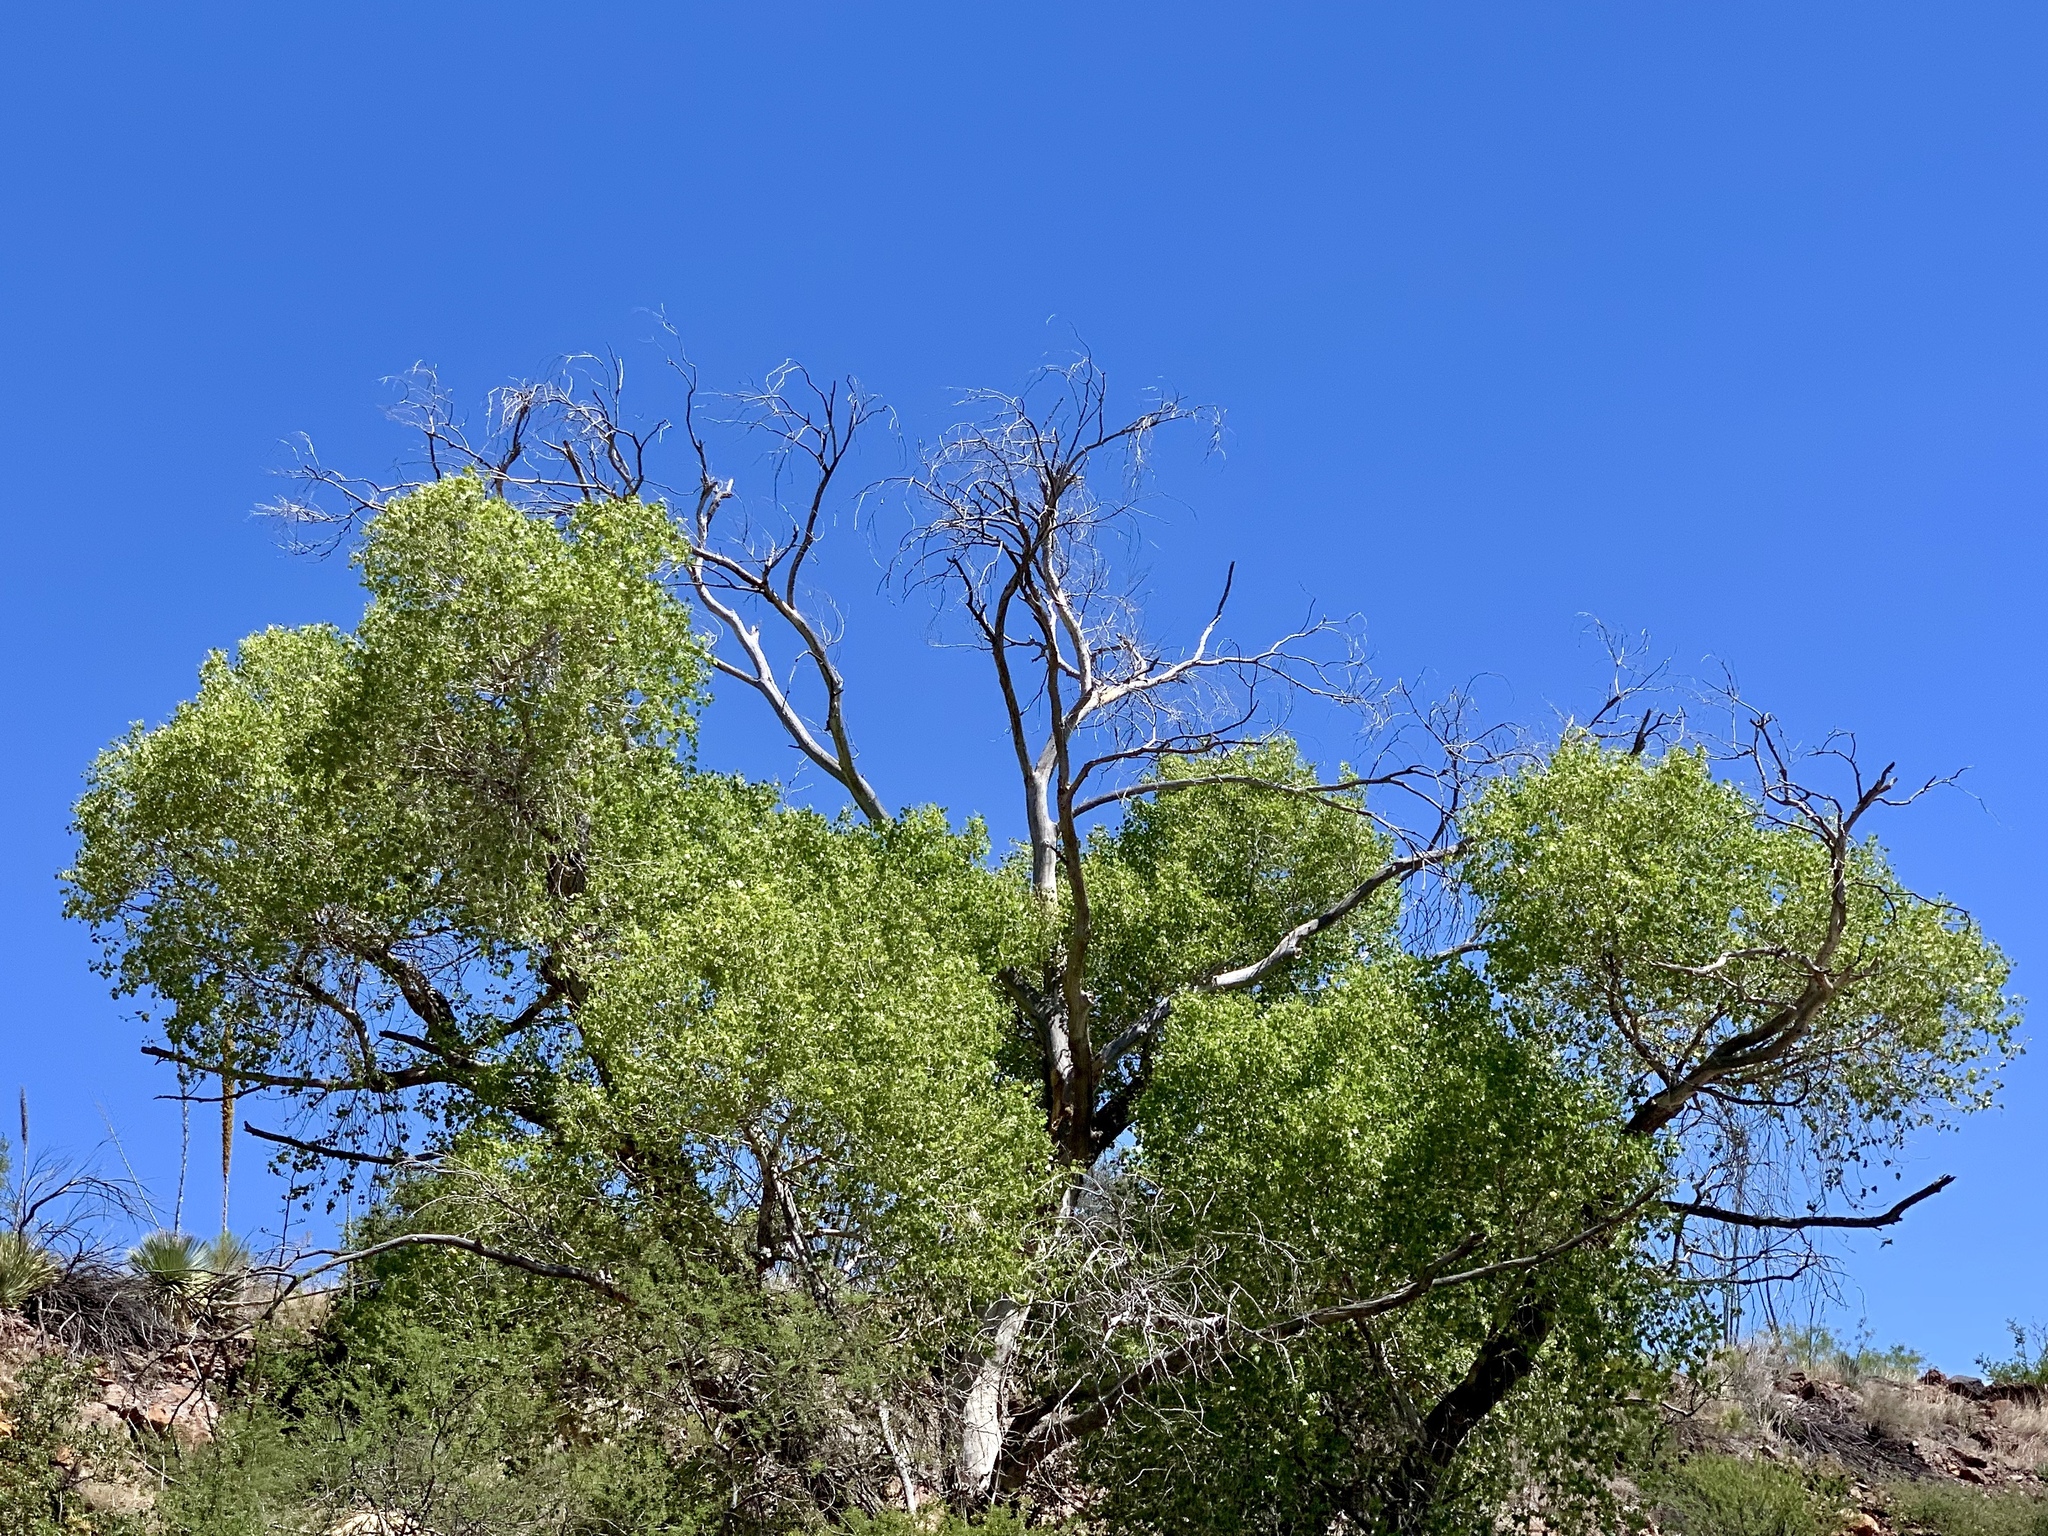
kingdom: Plantae
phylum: Tracheophyta
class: Magnoliopsida
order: Malpighiales
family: Salicaceae
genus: Populus
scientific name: Populus fremontii
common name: Fremont's cottonwood
